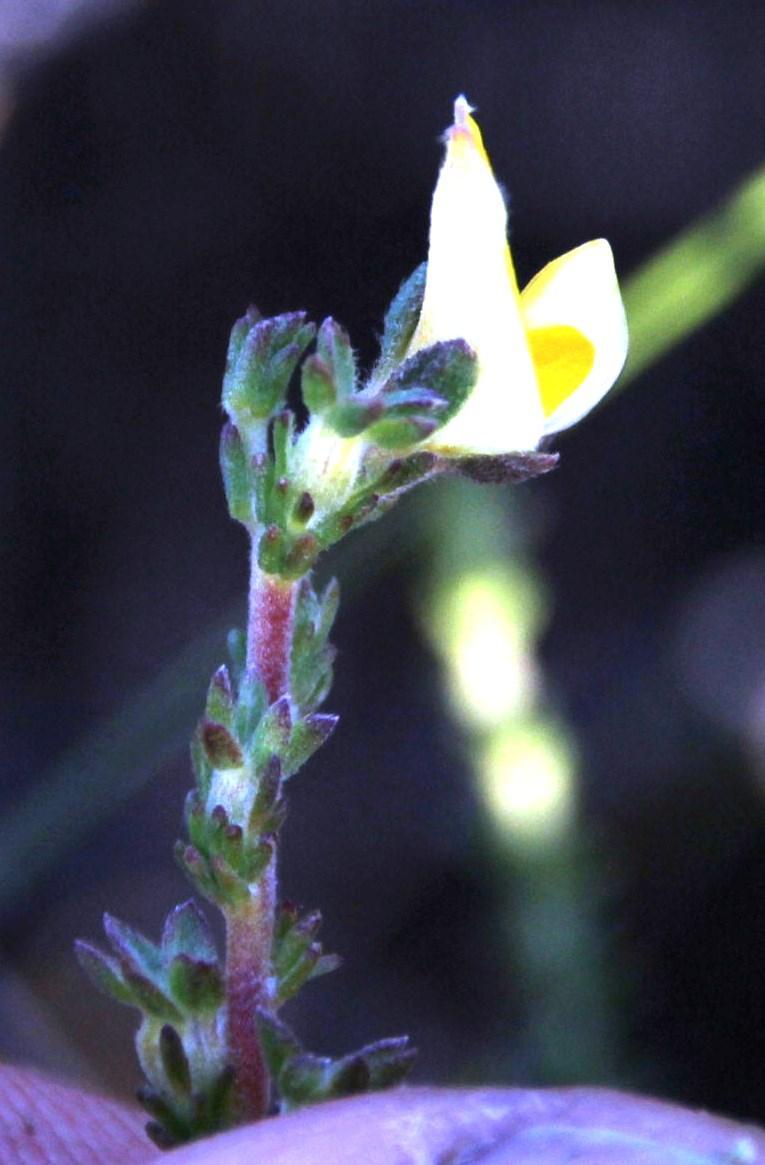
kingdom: Plantae
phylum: Tracheophyta
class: Magnoliopsida
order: Fabales
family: Fabaceae
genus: Aspalathus
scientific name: Aspalathus cymbiformis
